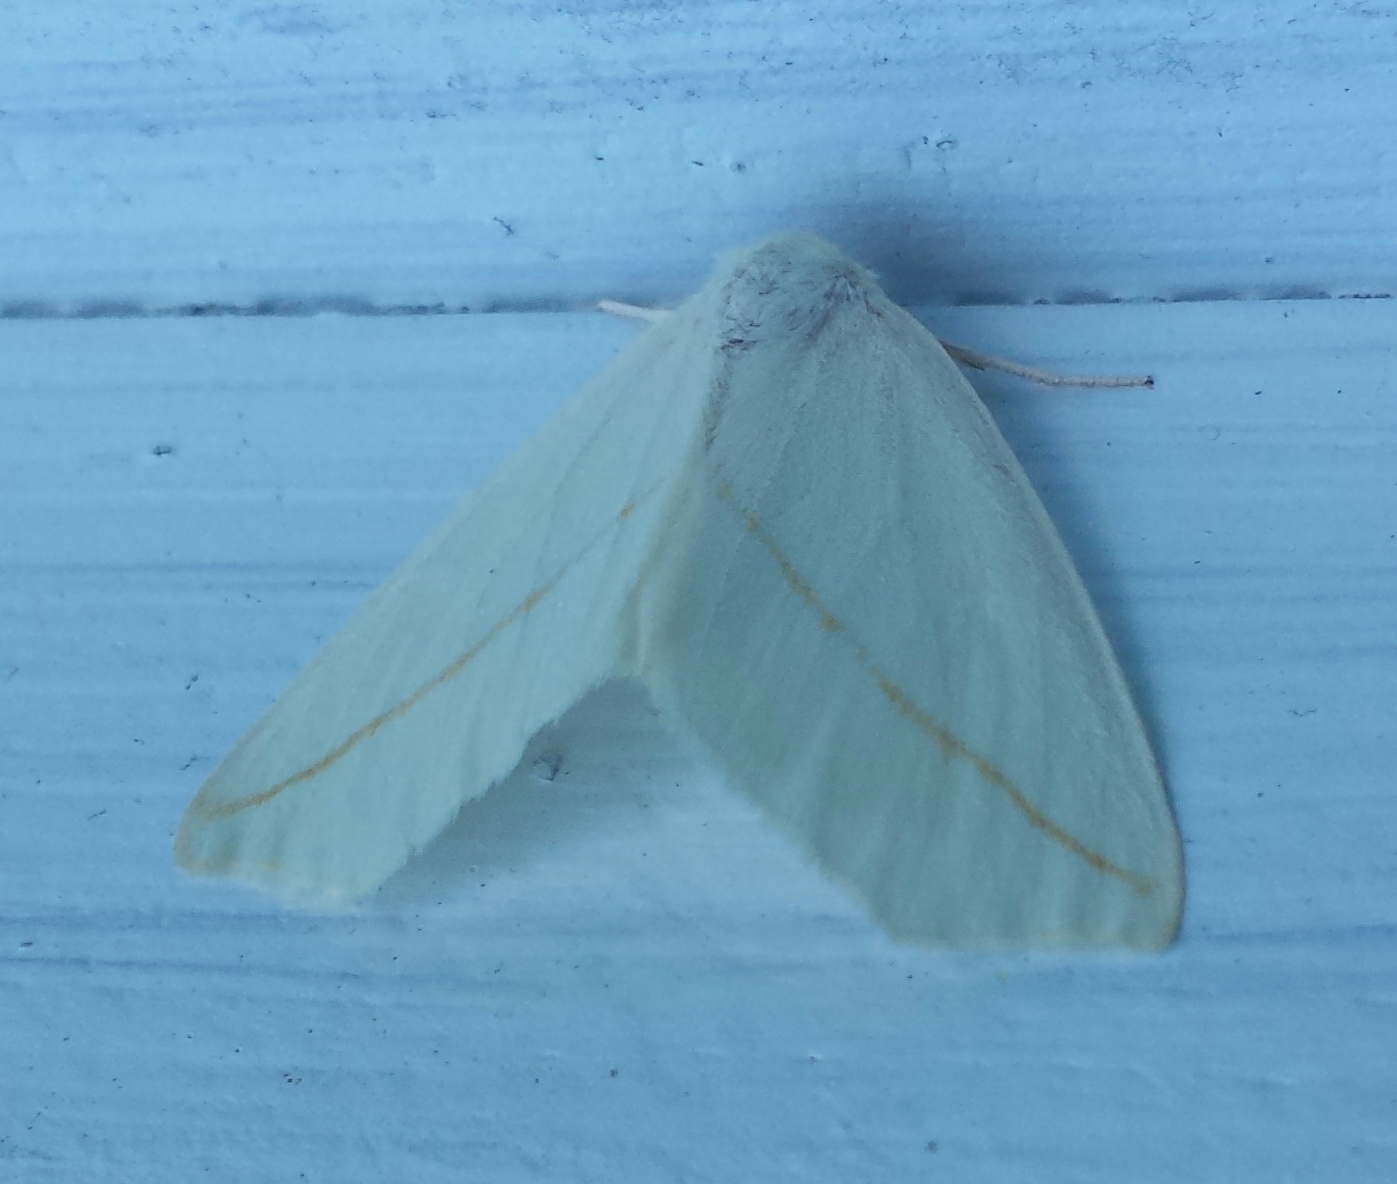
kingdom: Animalia
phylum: Arthropoda
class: Insecta
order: Lepidoptera
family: Geometridae
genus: Tetracis
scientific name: Tetracis cachexiata
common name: White slant-line
